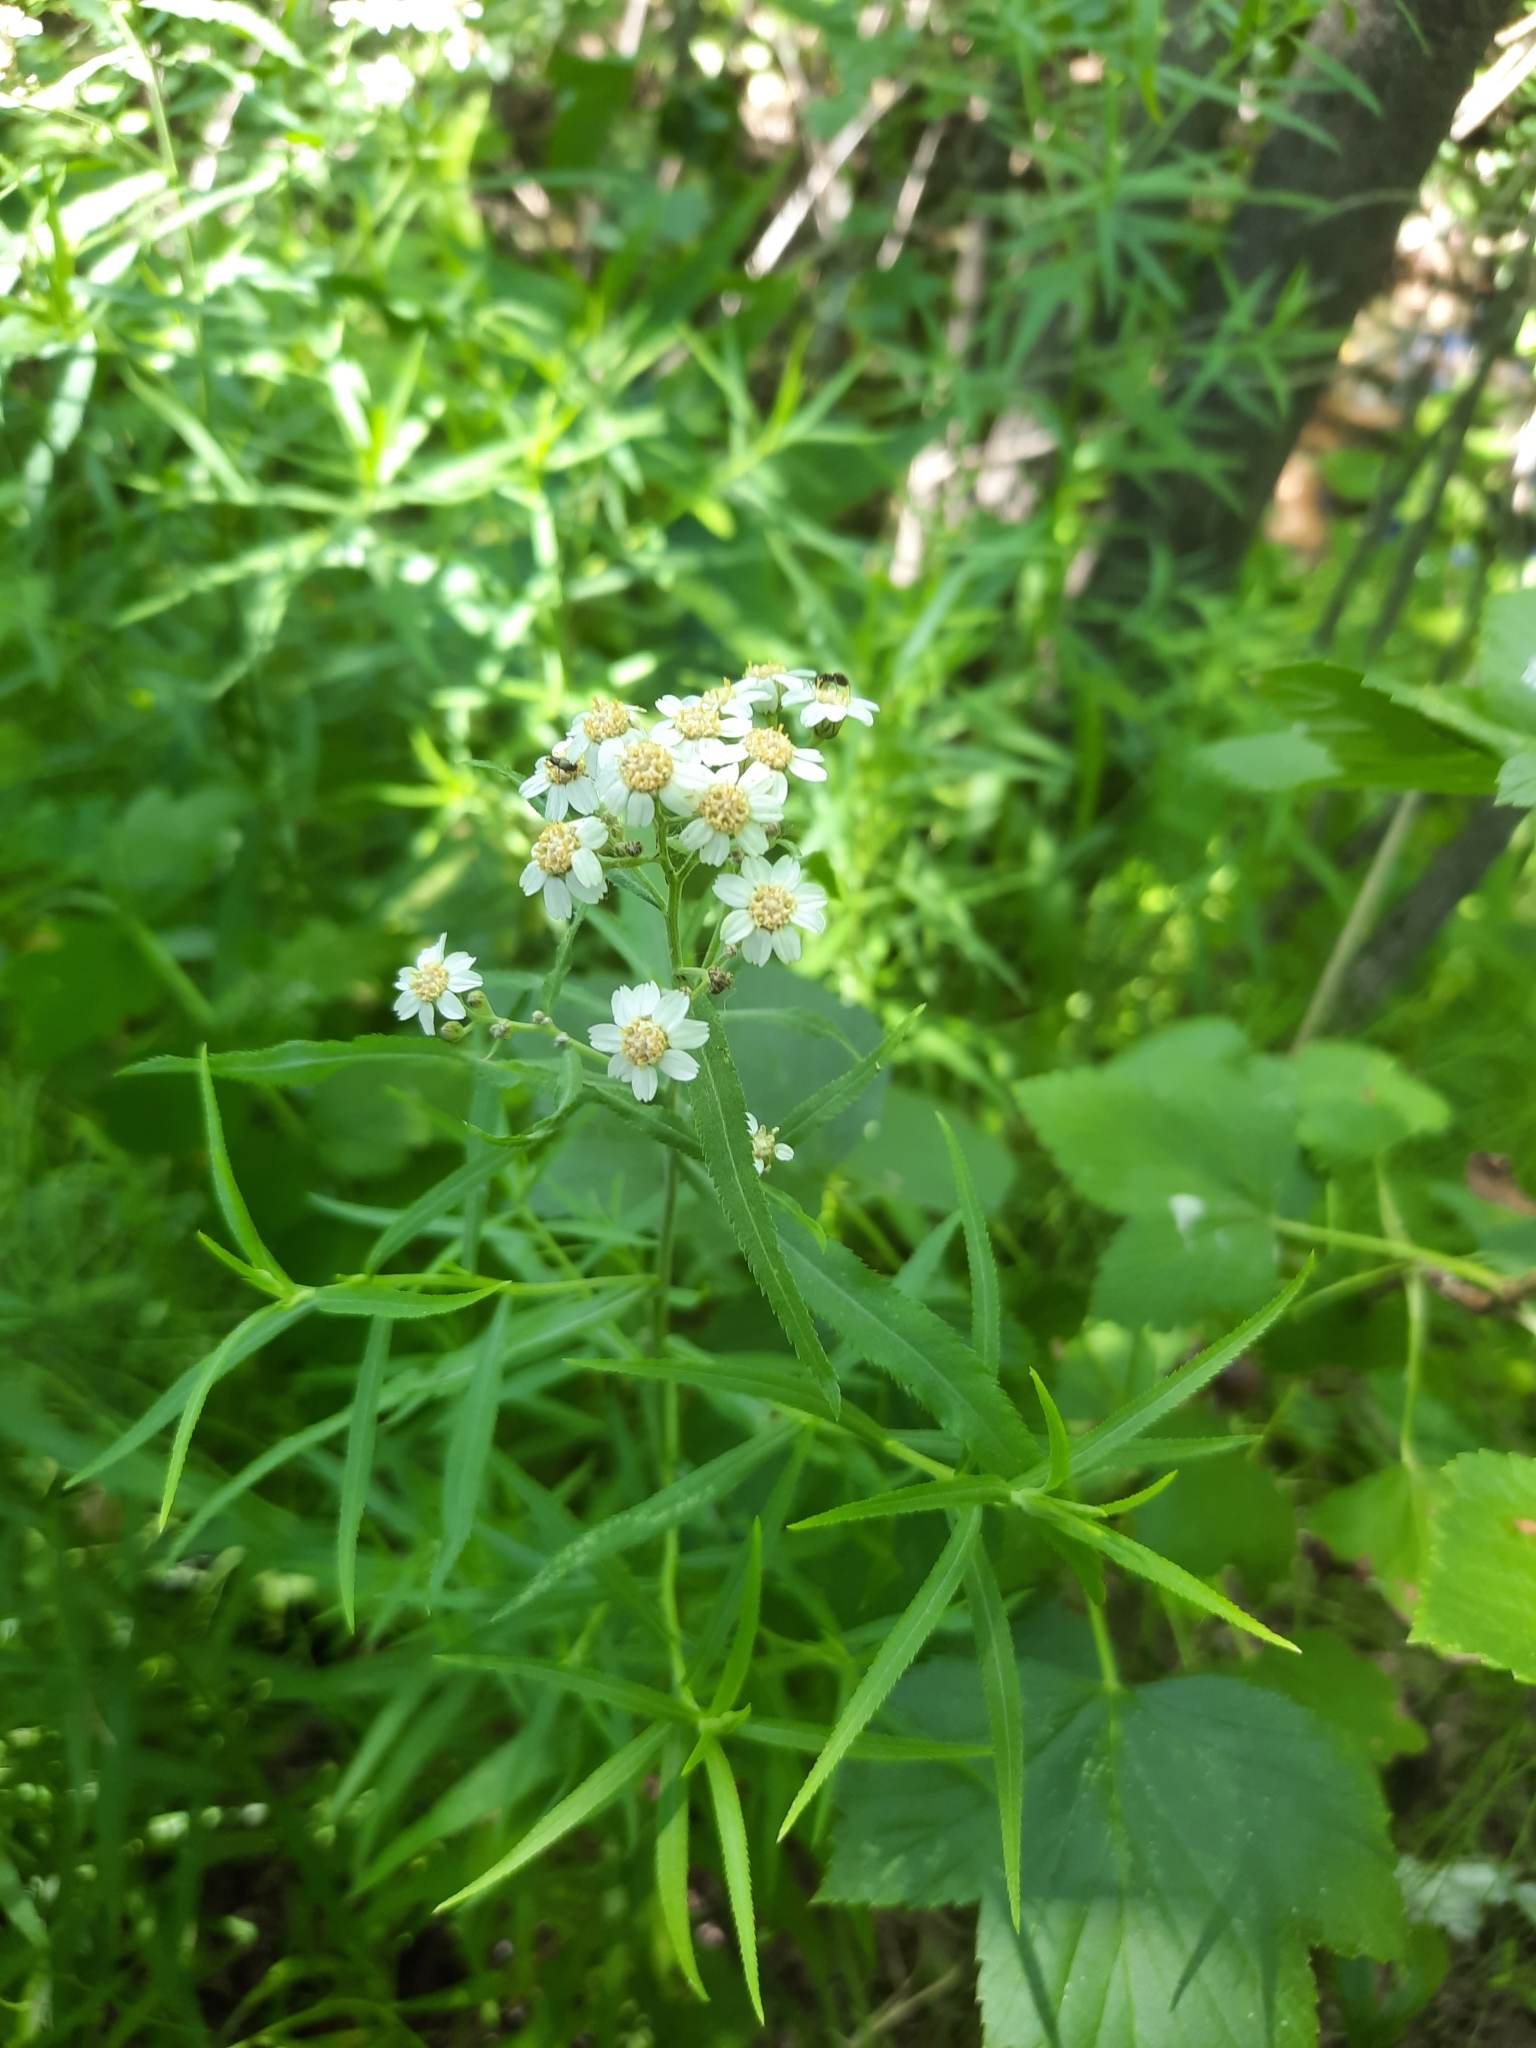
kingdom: Plantae
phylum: Tracheophyta
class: Magnoliopsida
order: Asterales
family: Asteraceae
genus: Achillea
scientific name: Achillea salicifolia
